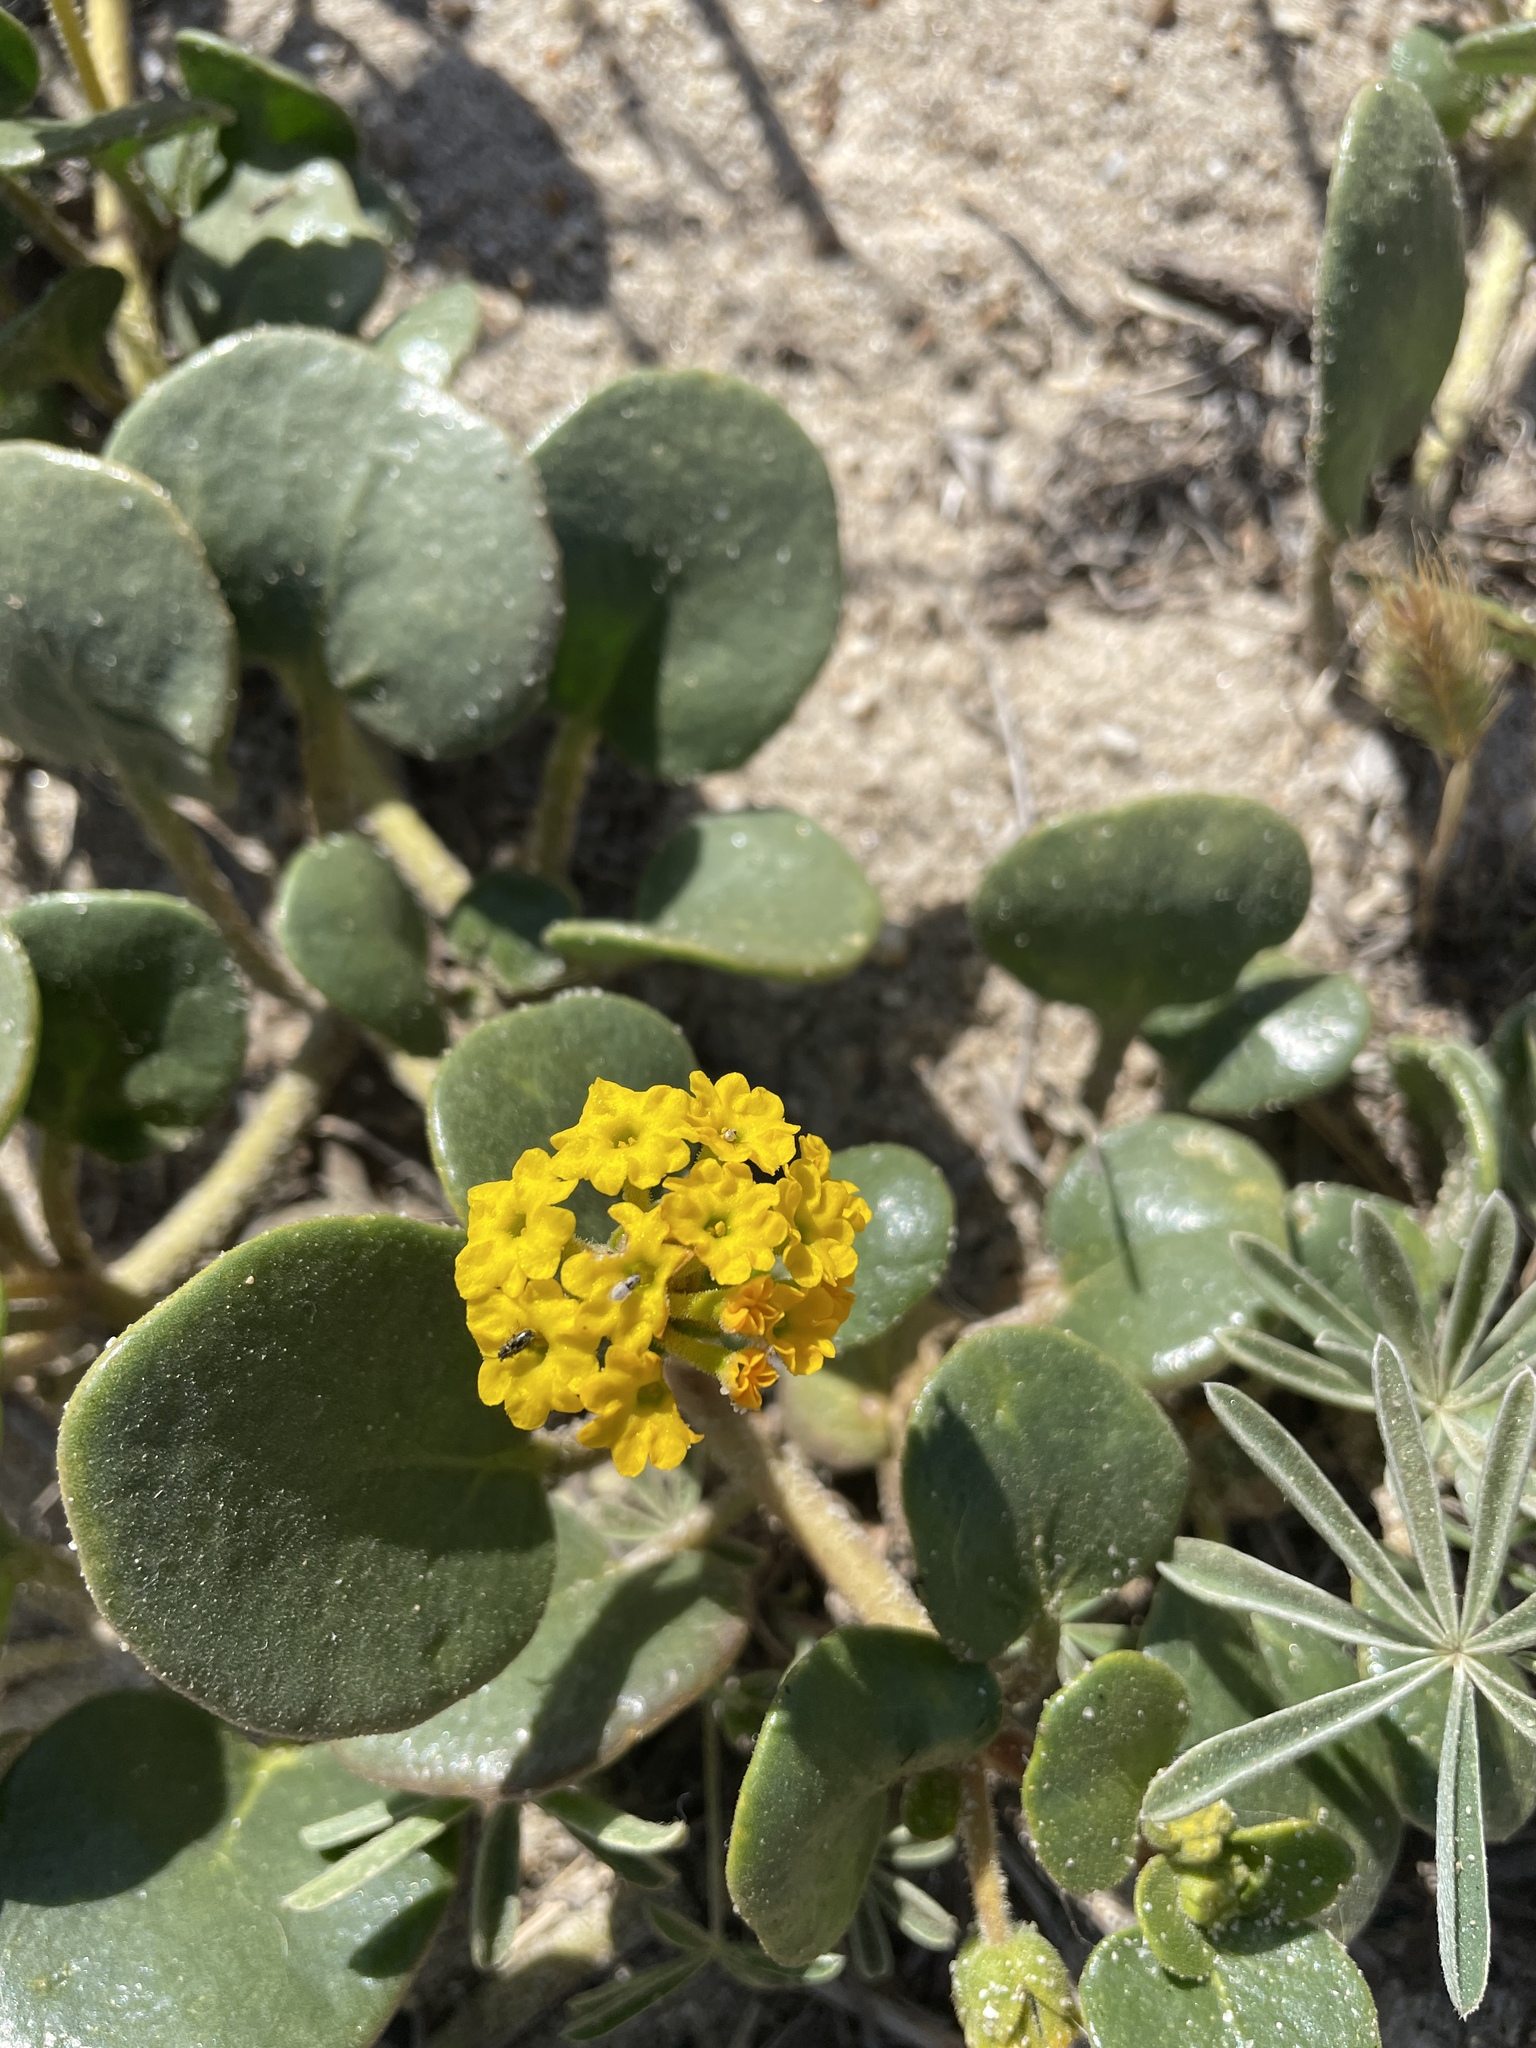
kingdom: Plantae
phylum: Tracheophyta
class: Magnoliopsida
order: Caryophyllales
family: Nyctaginaceae
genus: Abronia
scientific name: Abronia latifolia
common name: Yellow sand-verbena
